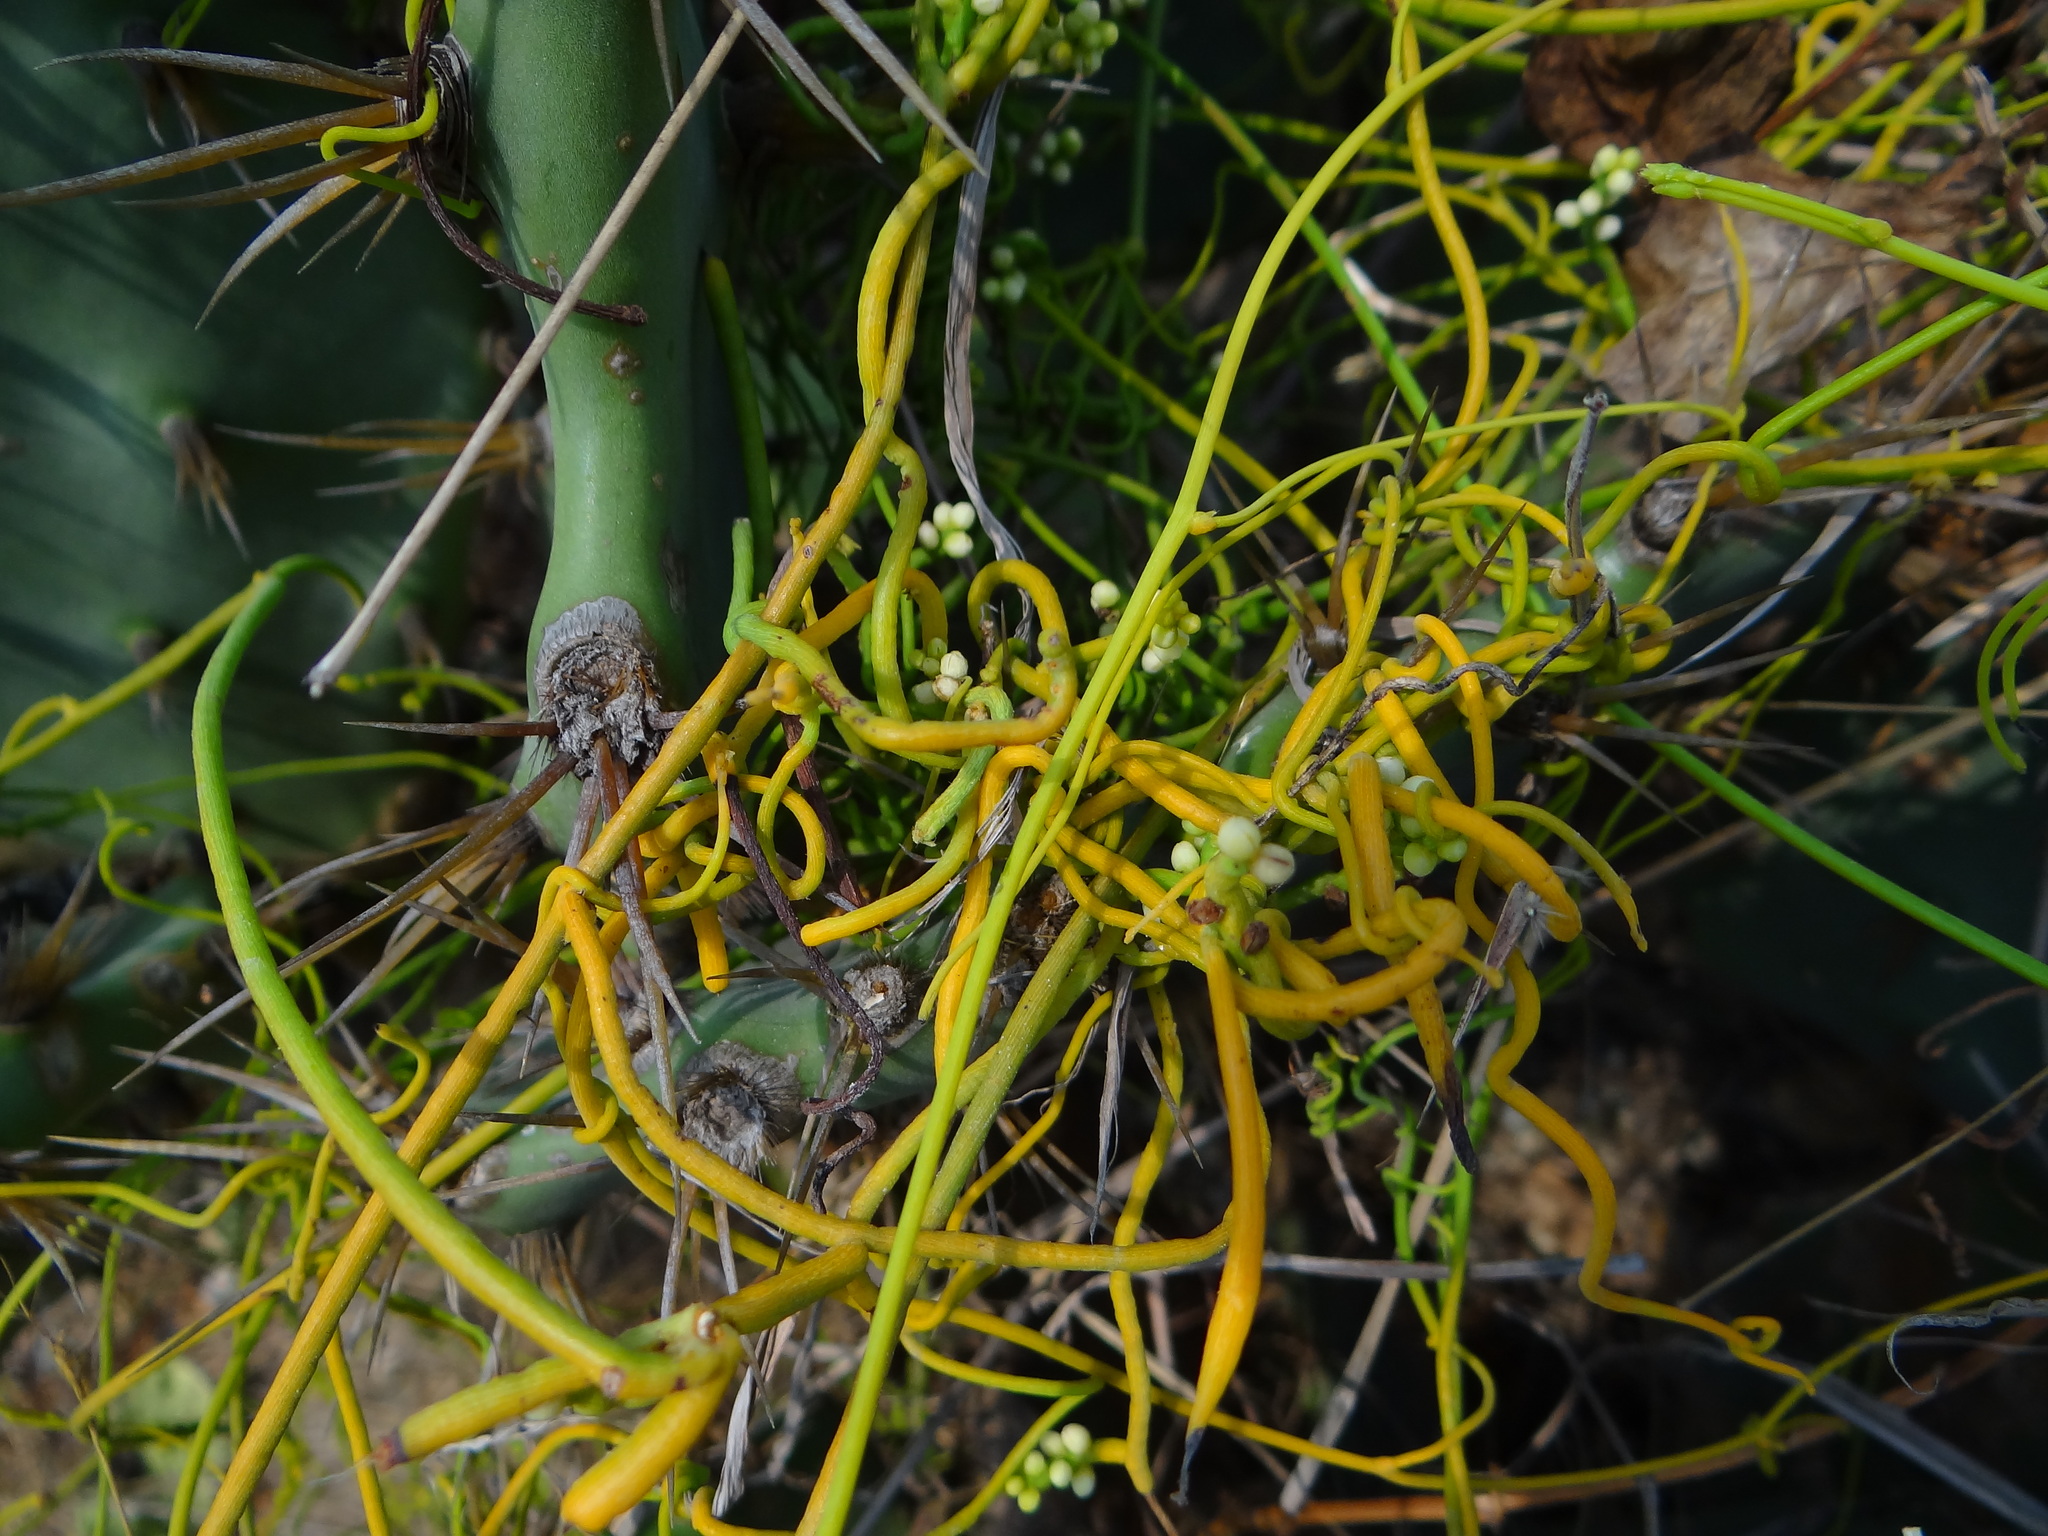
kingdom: Plantae
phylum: Tracheophyta
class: Magnoliopsida
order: Laurales
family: Lauraceae
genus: Cassytha
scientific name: Cassytha filiformis
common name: Dodder-laurel
